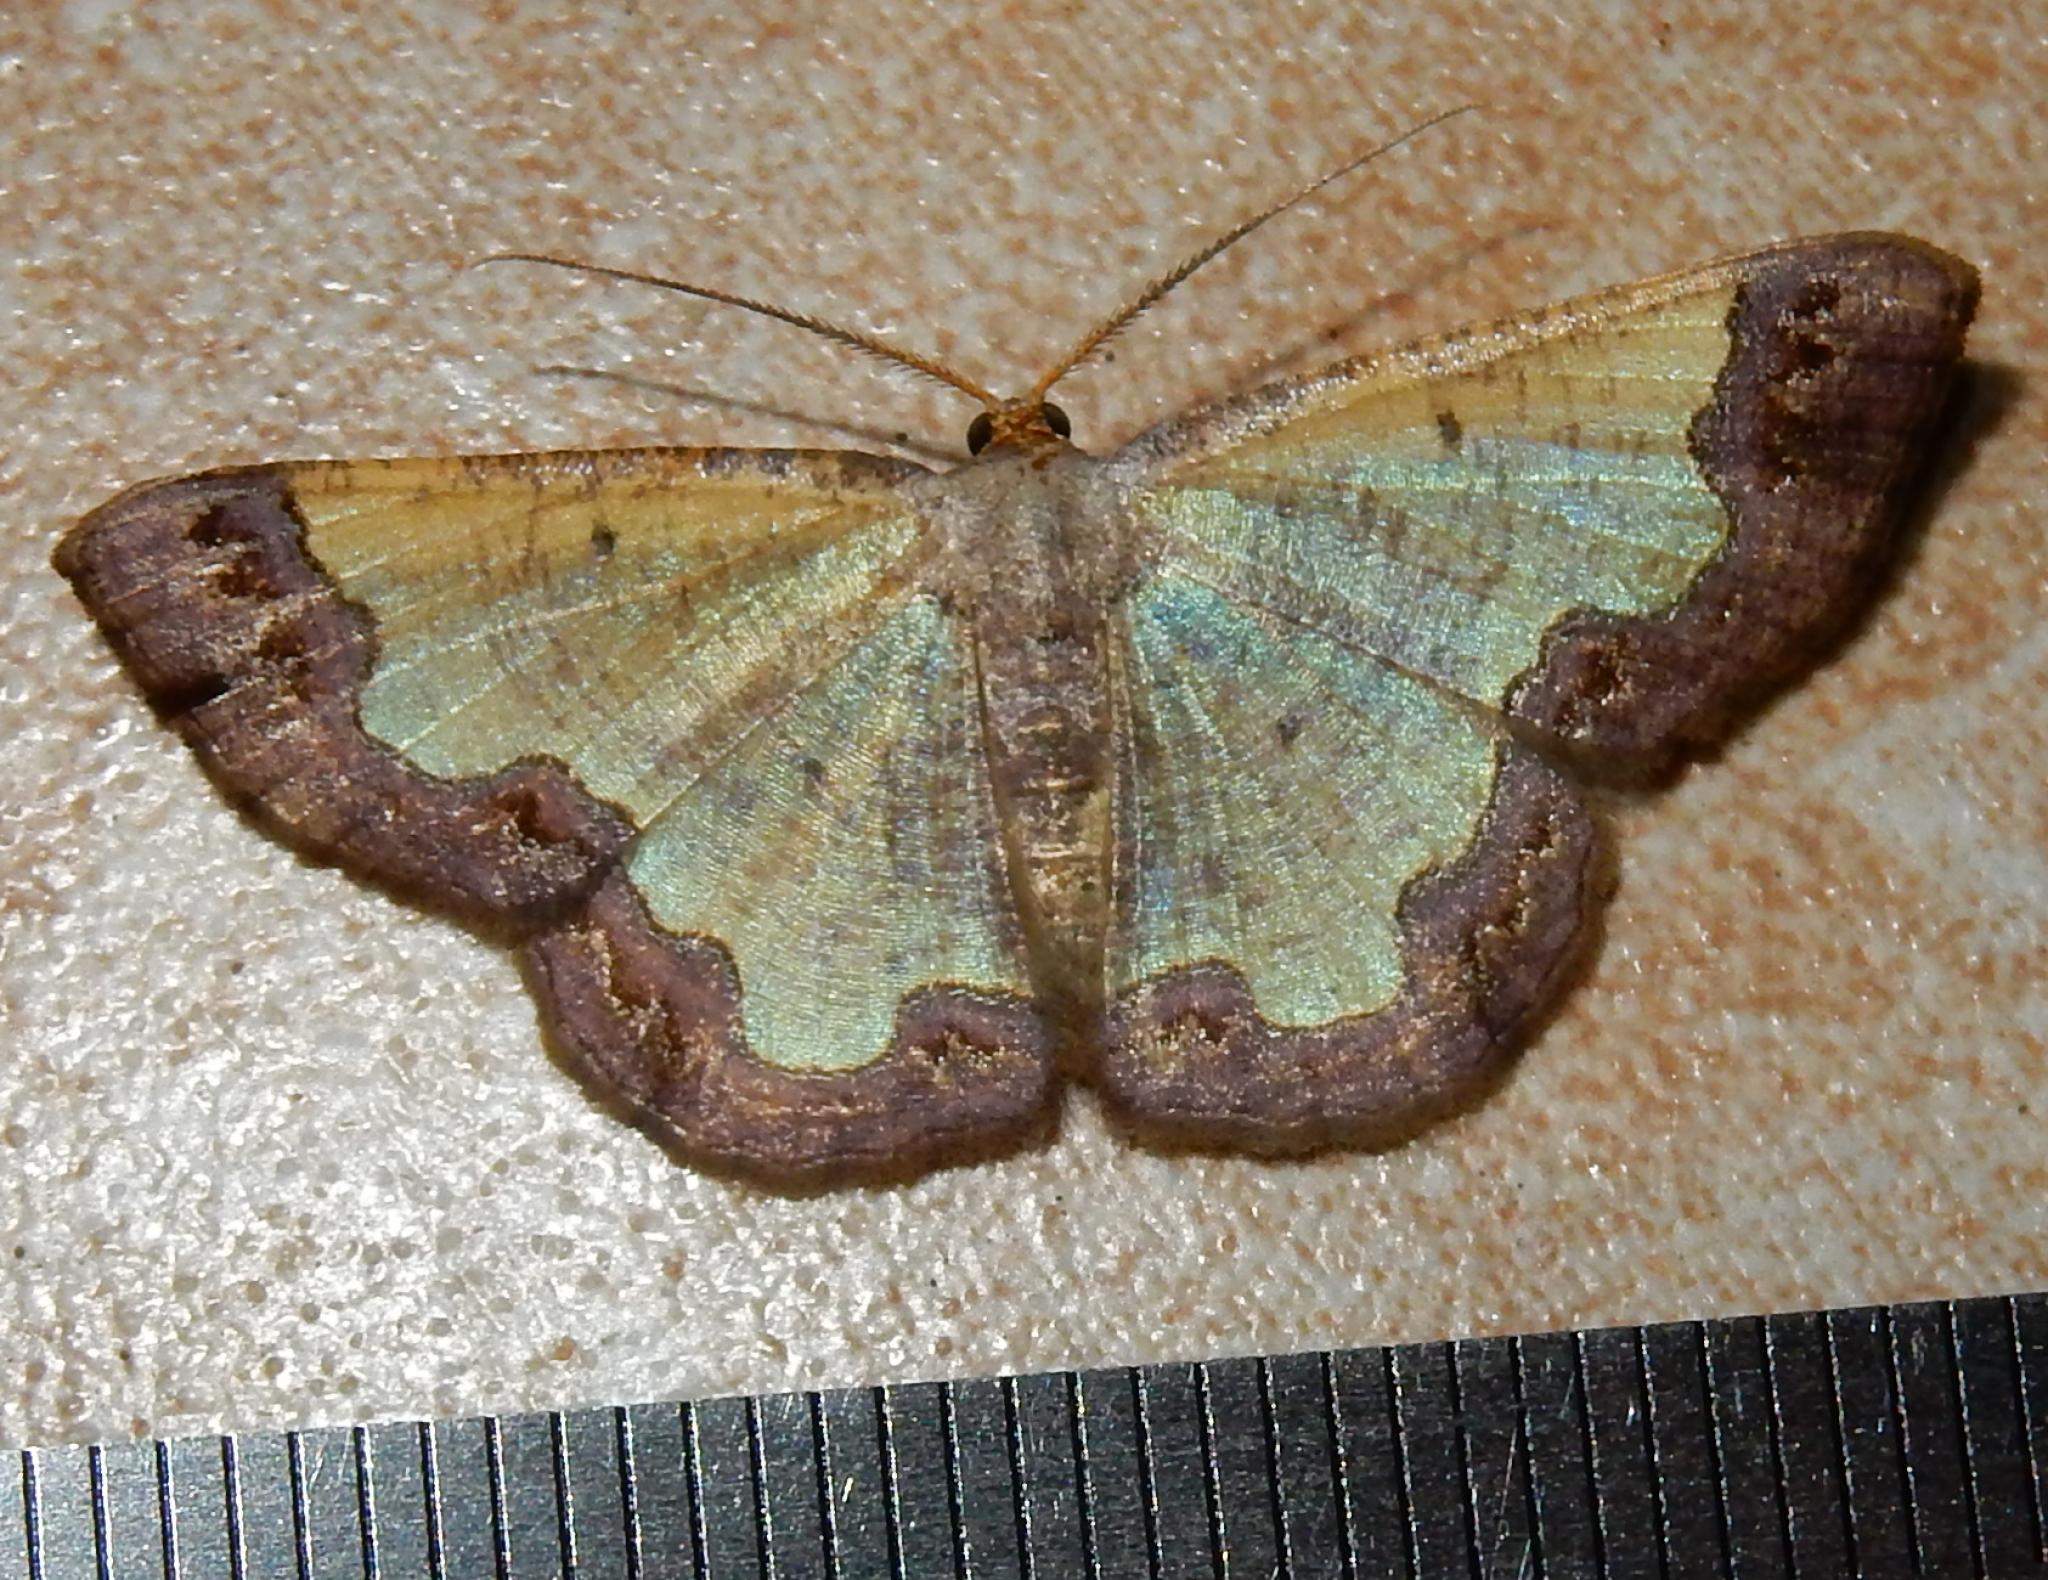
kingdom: Animalia
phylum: Arthropoda
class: Insecta
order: Lepidoptera
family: Geometridae
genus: Zamarada
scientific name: Zamarada plana
